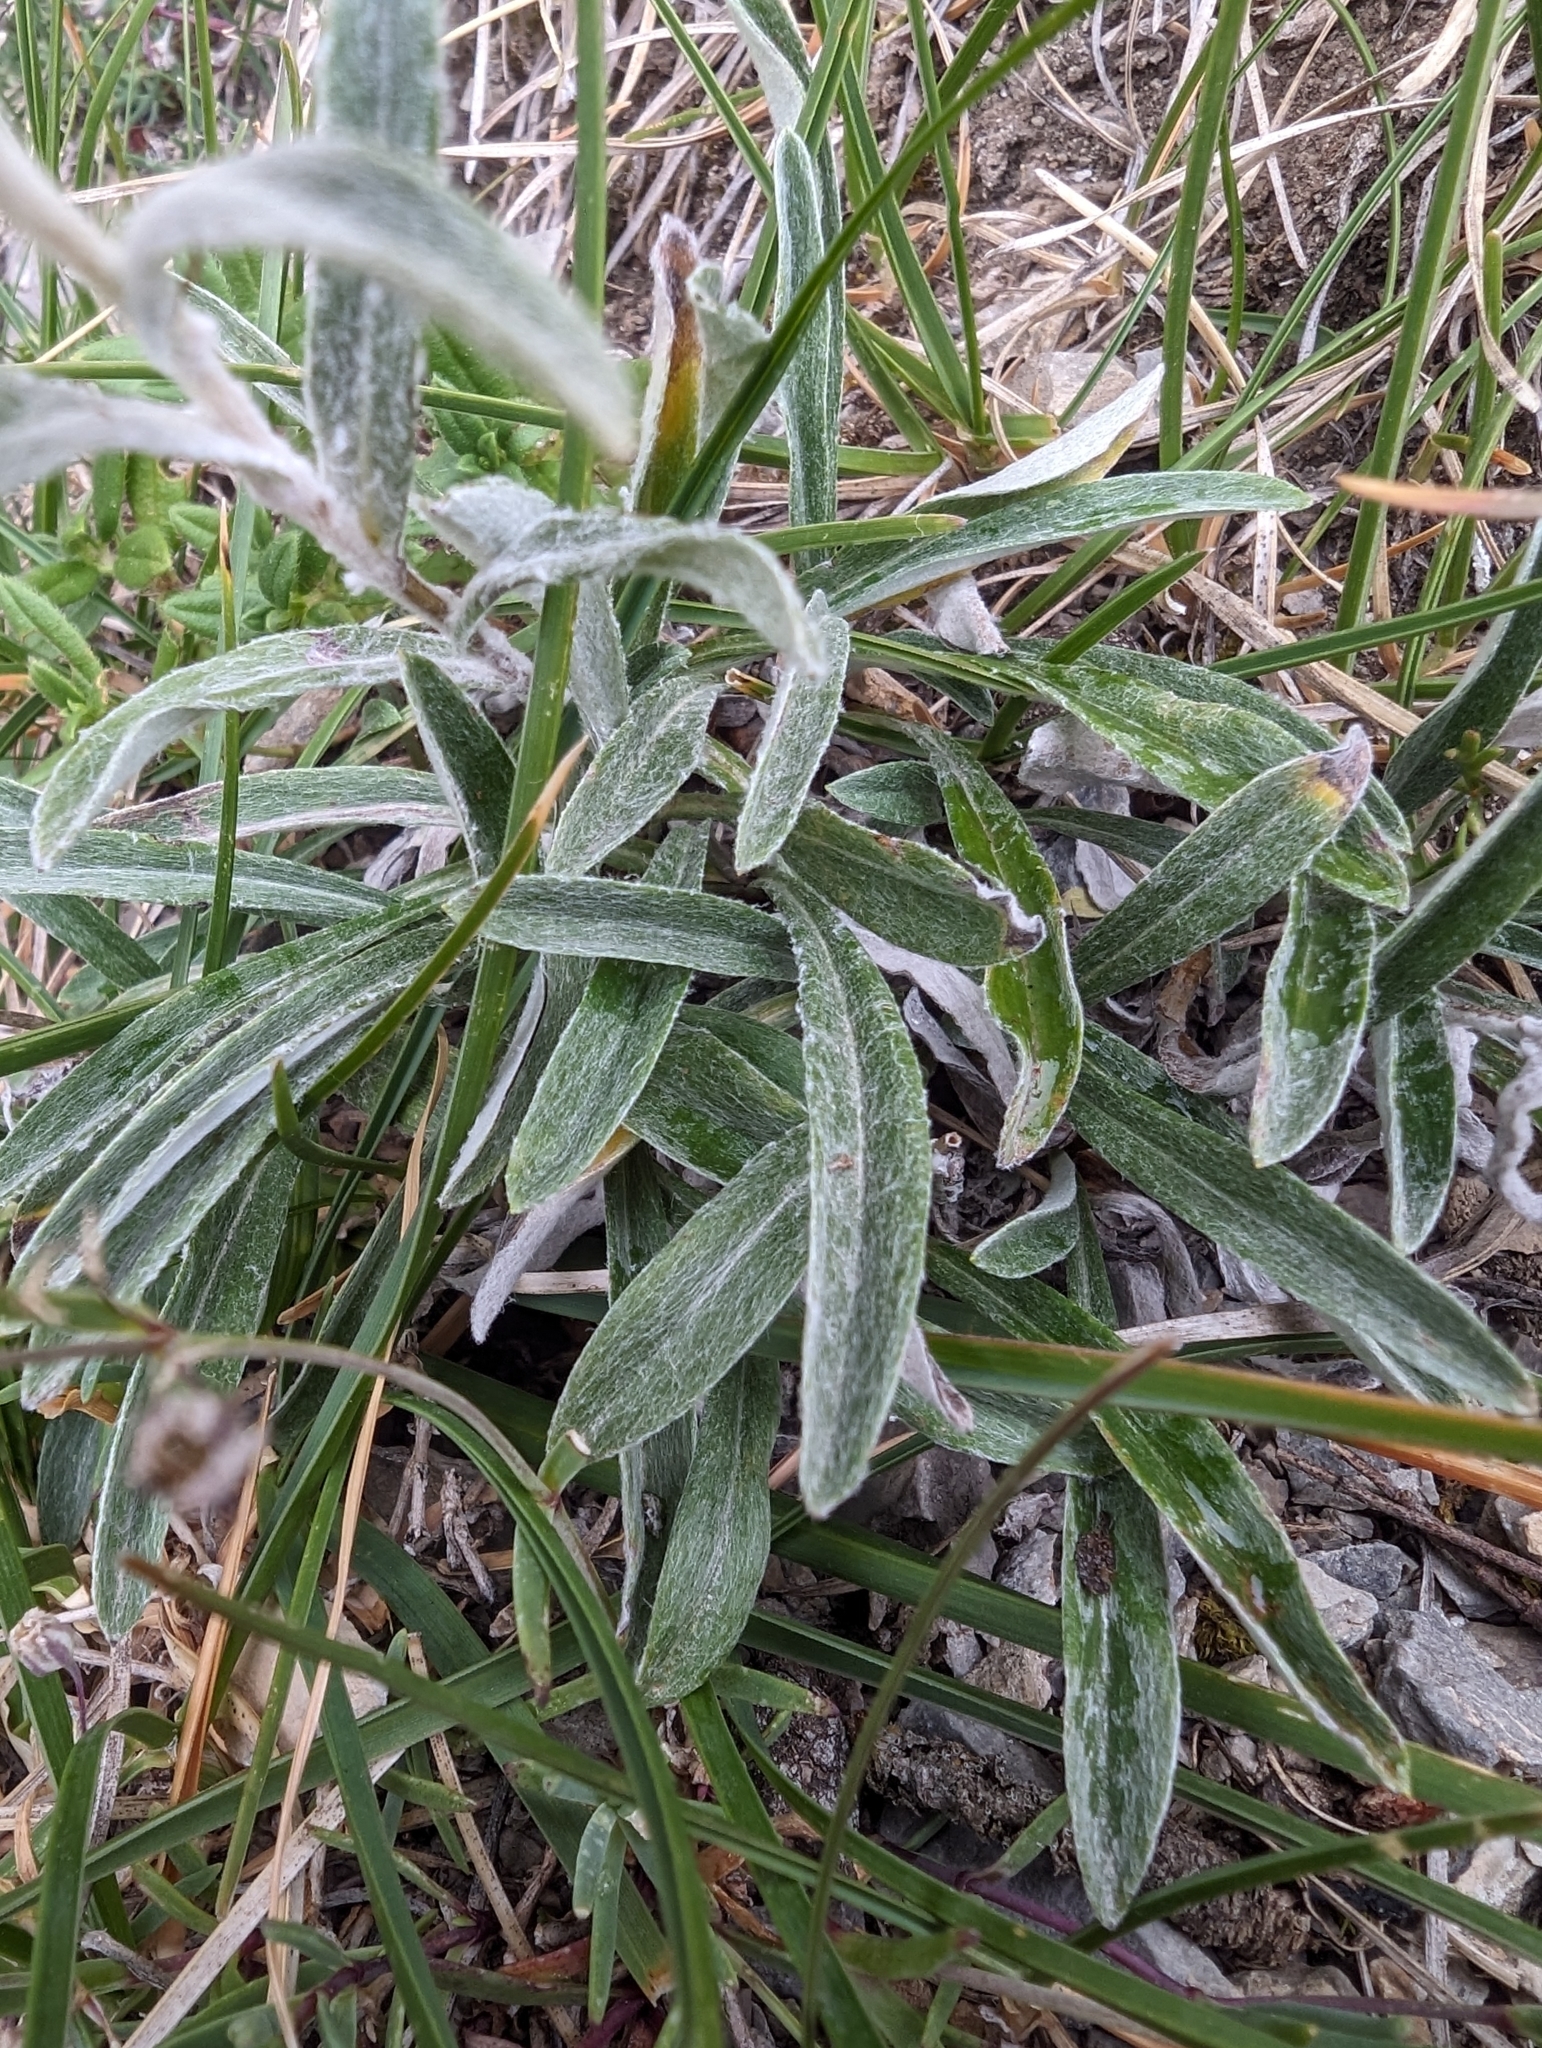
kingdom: Plantae
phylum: Tracheophyta
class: Magnoliopsida
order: Asterales
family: Asteraceae
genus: Leontopodium
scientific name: Leontopodium nivale
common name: Edelweiss
